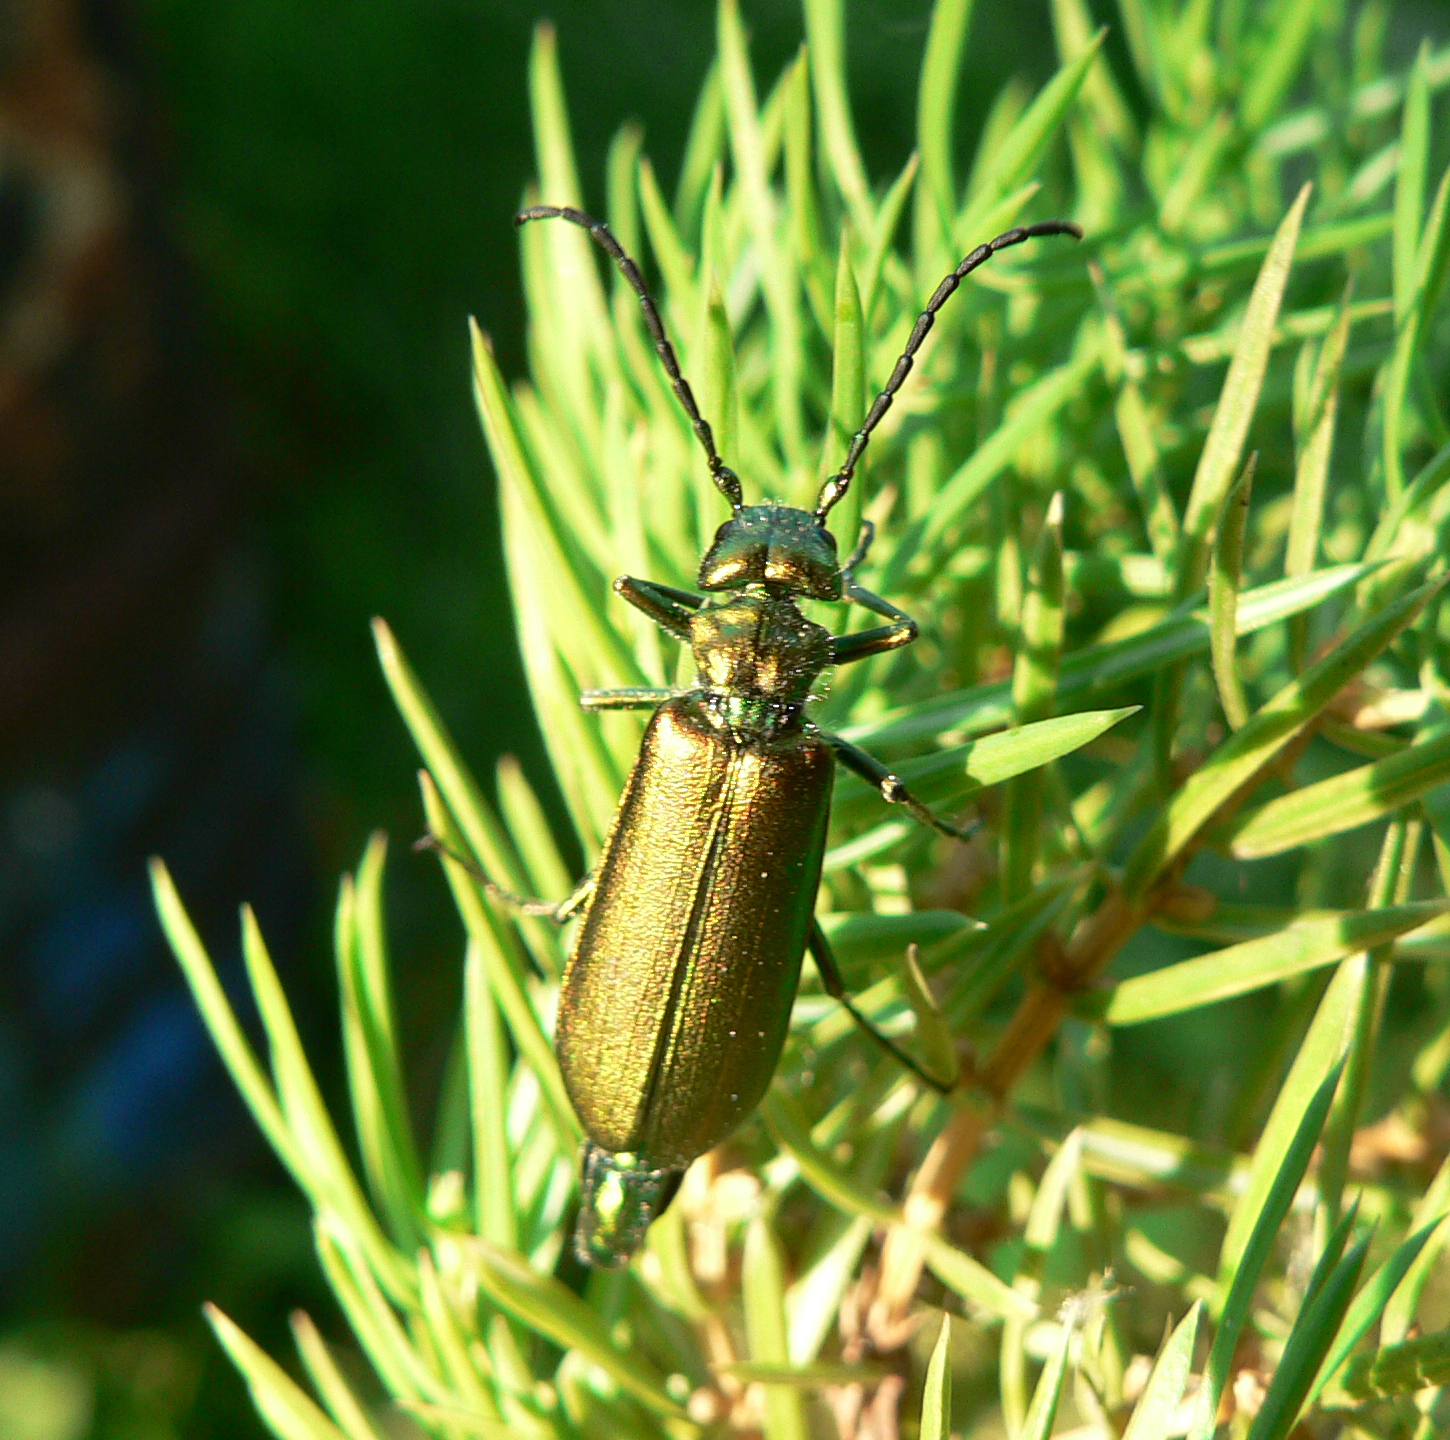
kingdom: Animalia
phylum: Arthropoda
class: Insecta
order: Coleoptera
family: Meloidae
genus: Lytta
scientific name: Lytta vesicatoria
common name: Spanish fly
